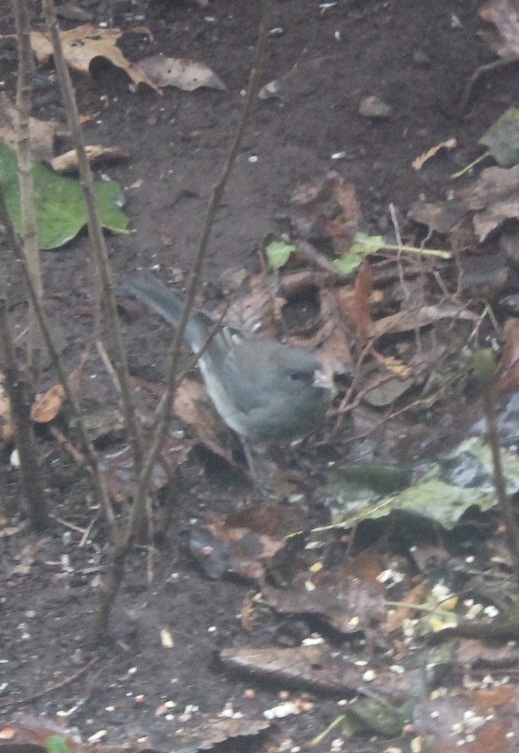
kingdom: Animalia
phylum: Chordata
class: Aves
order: Passeriformes
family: Passerellidae
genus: Junco
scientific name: Junco hyemalis
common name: Dark-eyed junco
